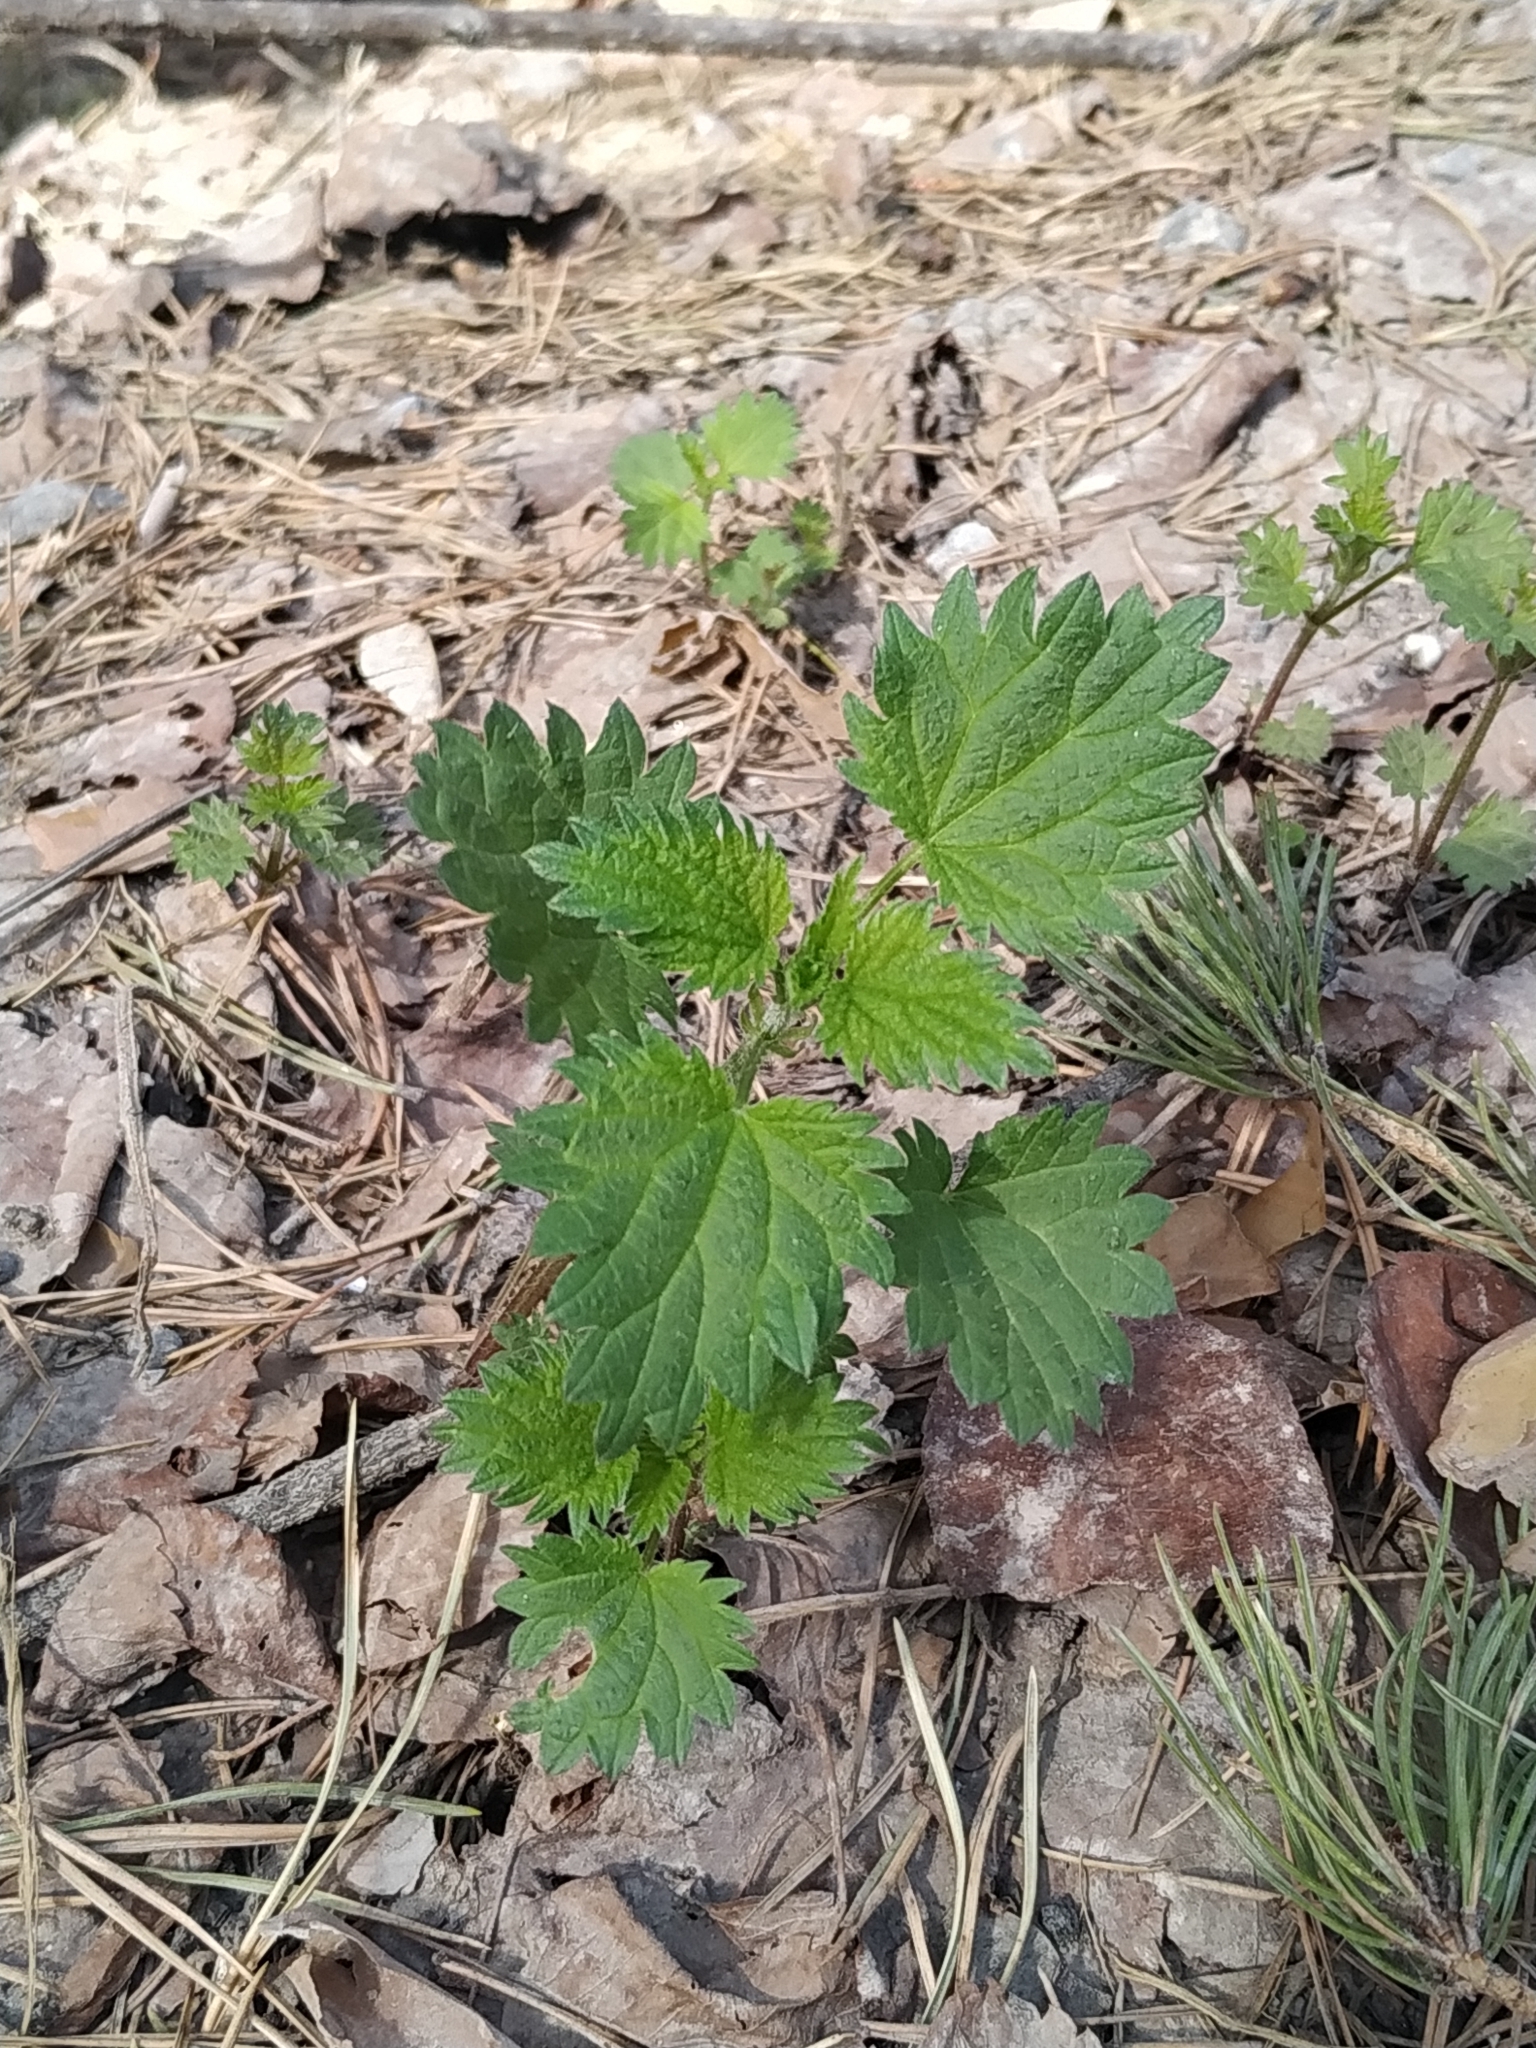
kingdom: Plantae
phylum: Tracheophyta
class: Magnoliopsida
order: Rosales
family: Urticaceae
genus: Urtica
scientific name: Urtica dioica
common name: Common nettle
